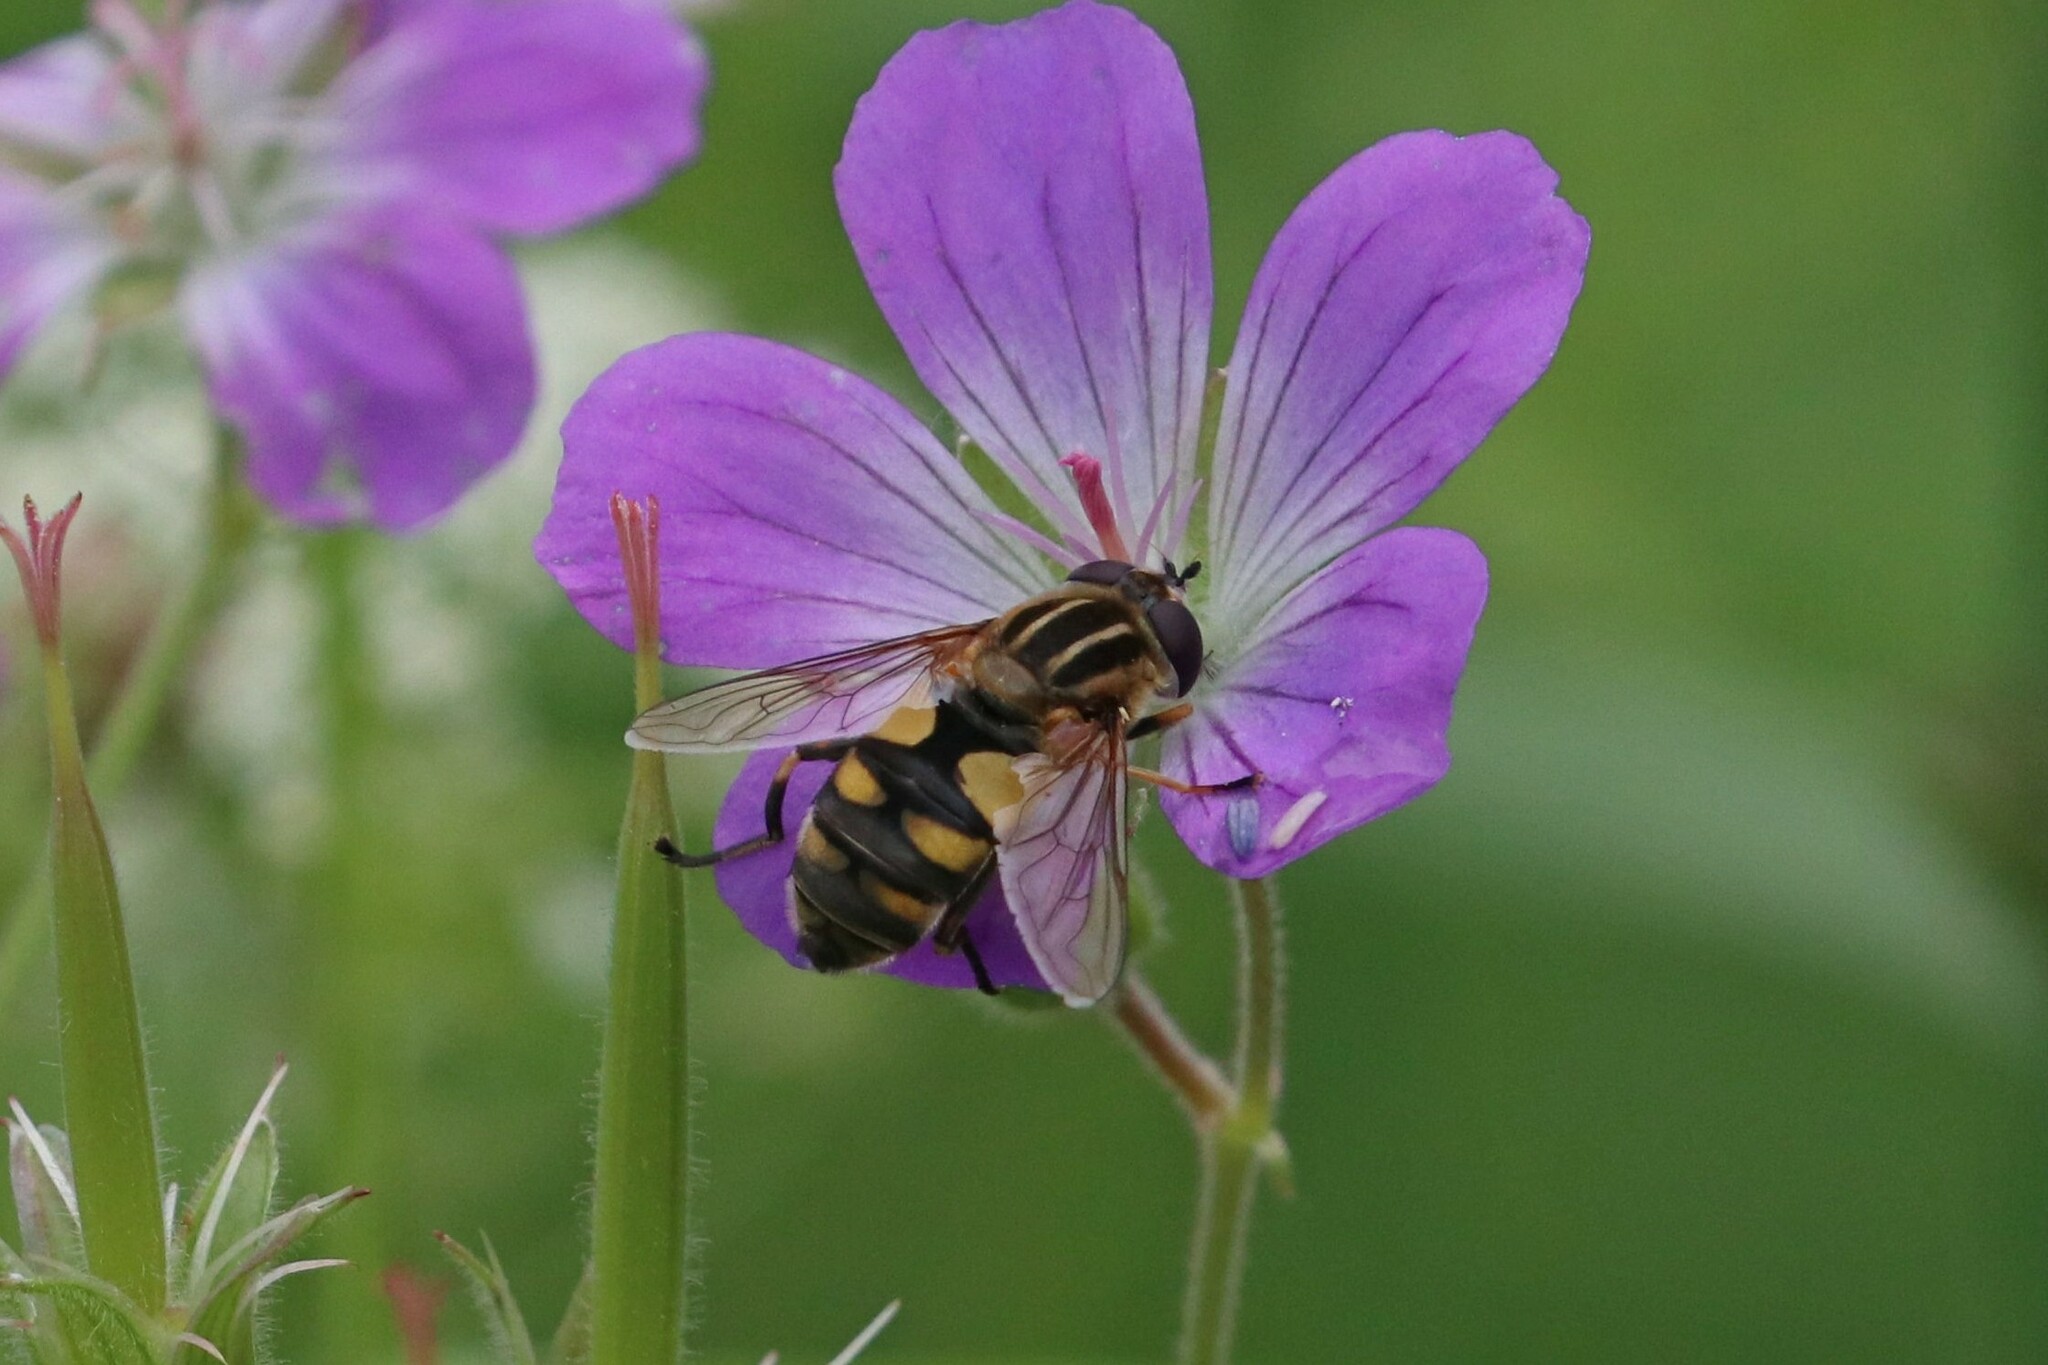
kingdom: Animalia
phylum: Arthropoda
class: Insecta
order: Diptera
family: Syrphidae
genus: Helophilus
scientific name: Helophilus trivittatus
